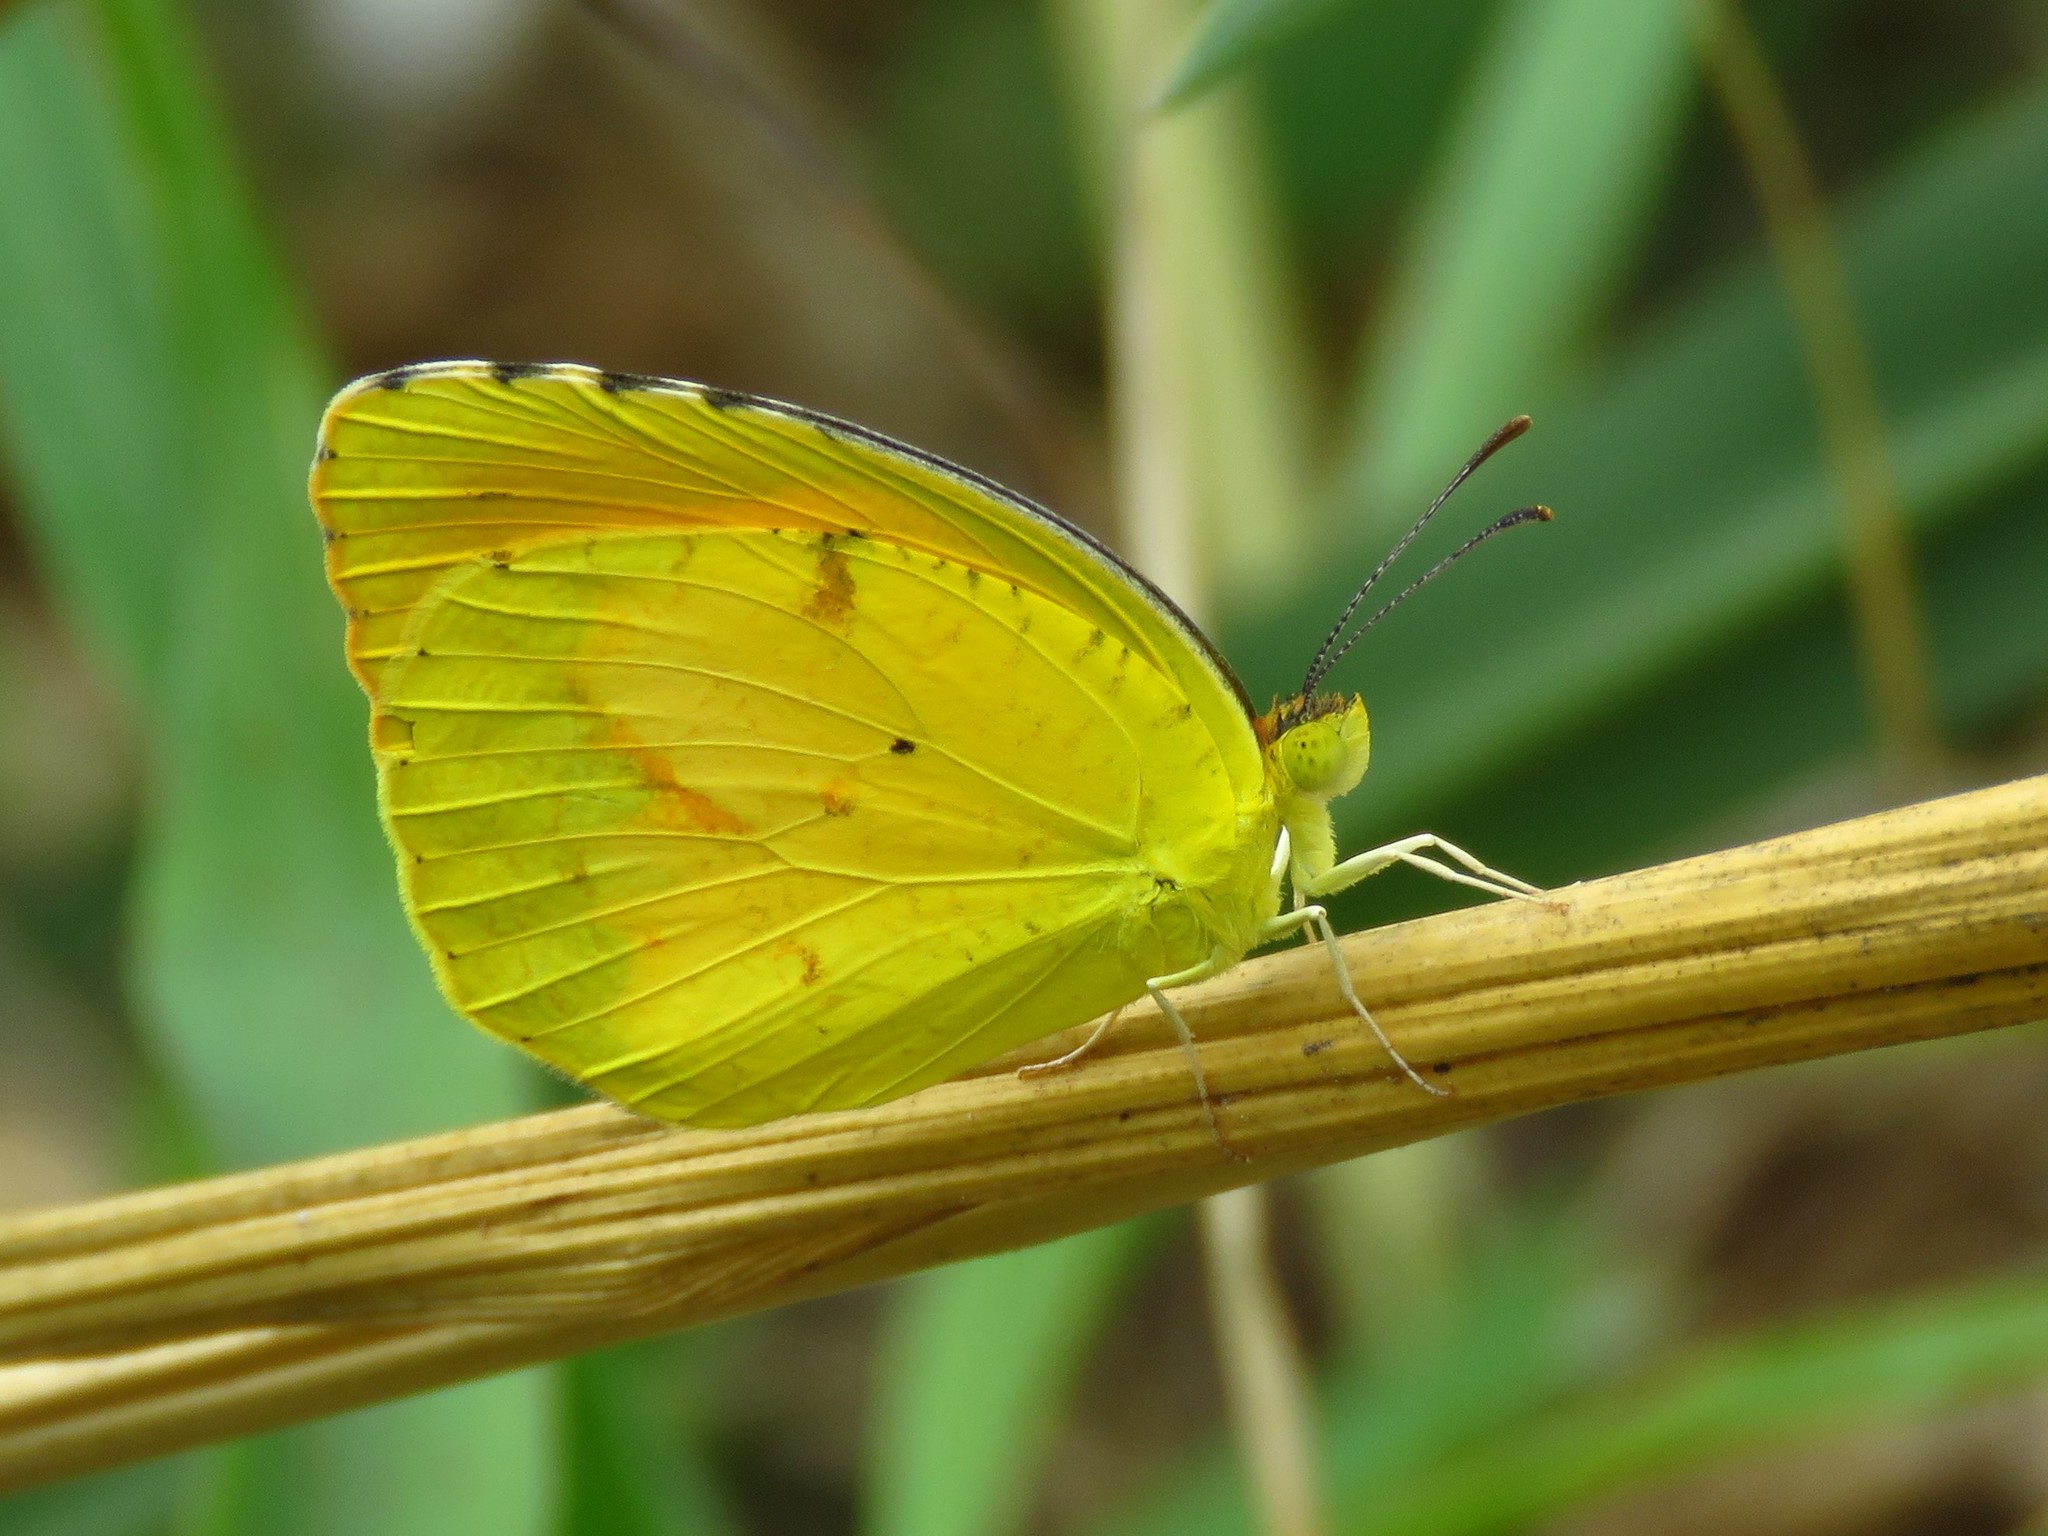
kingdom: Animalia
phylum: Arthropoda
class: Insecta
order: Lepidoptera
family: Pieridae
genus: Abaeis
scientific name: Abaeis nicippe
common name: Sleepy orange
